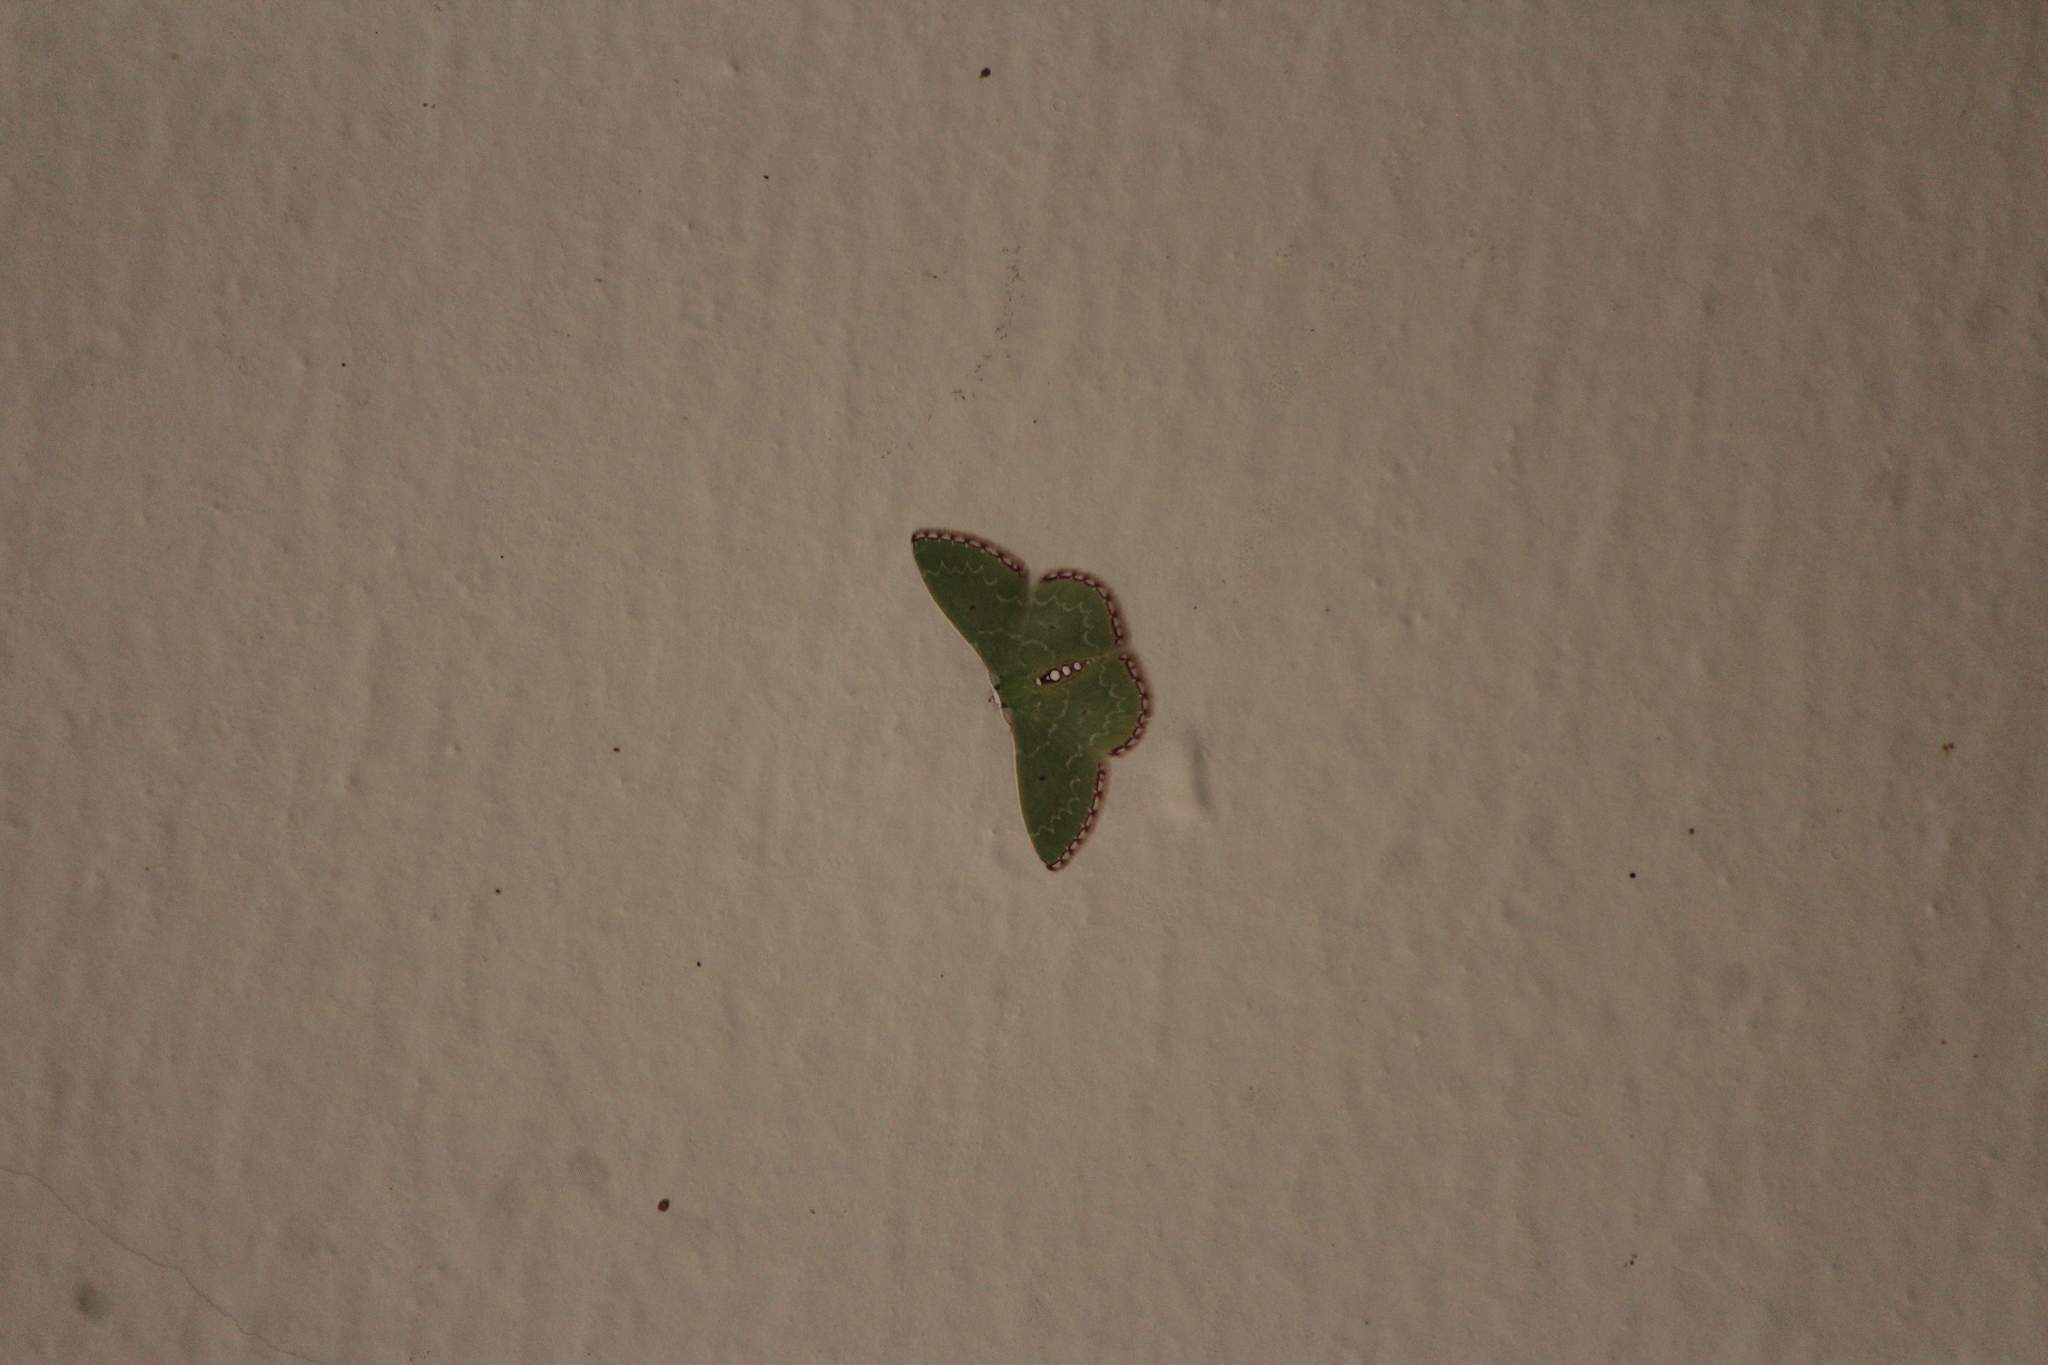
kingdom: Animalia
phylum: Arthropoda
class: Insecta
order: Lepidoptera
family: Geometridae
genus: Synchlora
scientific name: Synchlora noel
